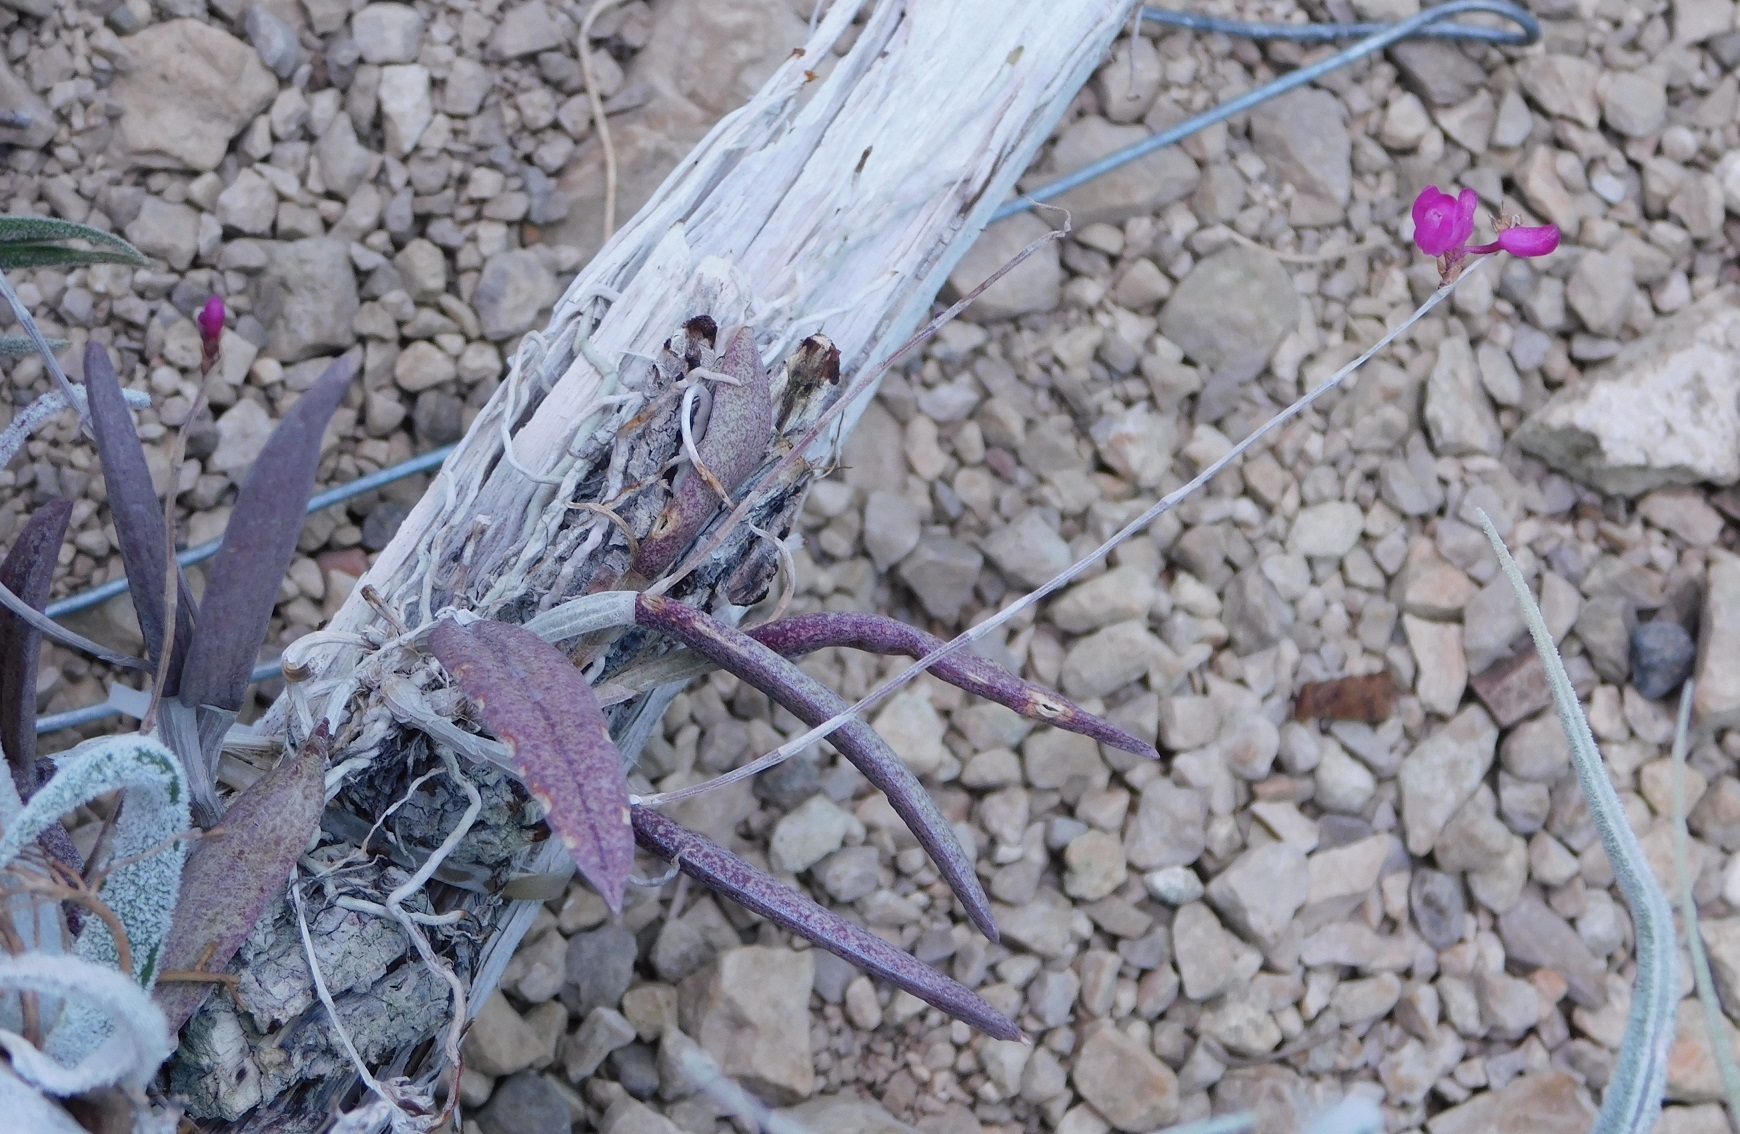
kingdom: Plantae
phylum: Tracheophyta
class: Liliopsida
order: Asparagales
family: Orchidaceae
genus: Domingoa
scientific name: Domingoa purpurea
